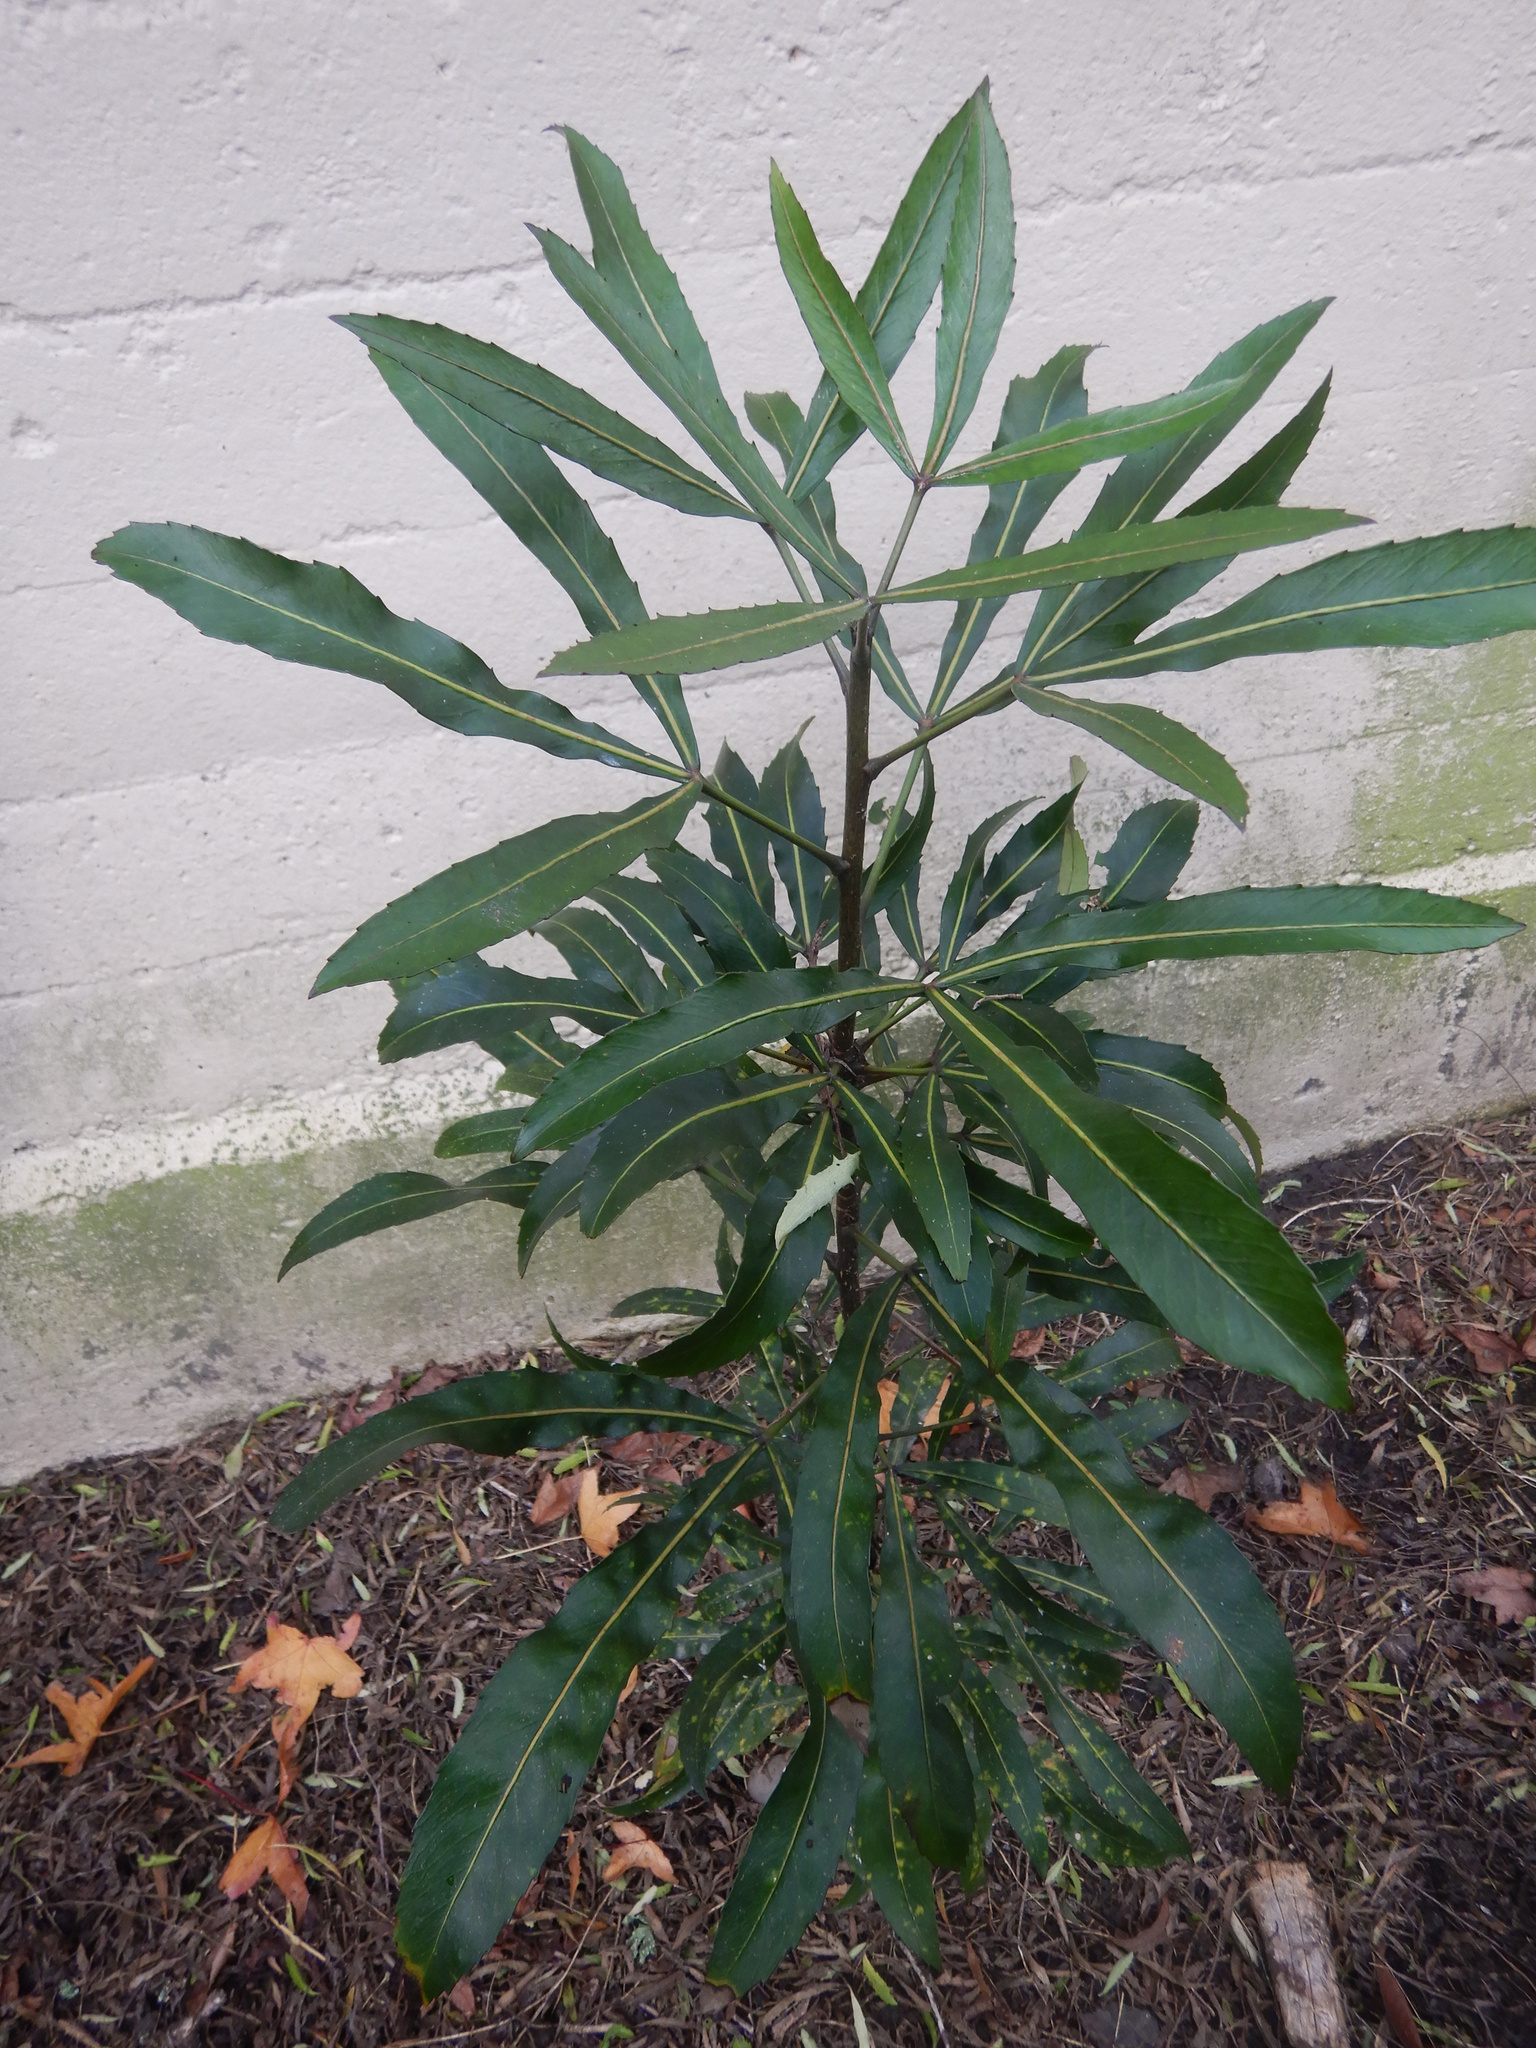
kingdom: Plantae
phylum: Tracheophyta
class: Magnoliopsida
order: Apiales
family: Araliaceae
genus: Pseudopanax
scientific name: Pseudopanax
